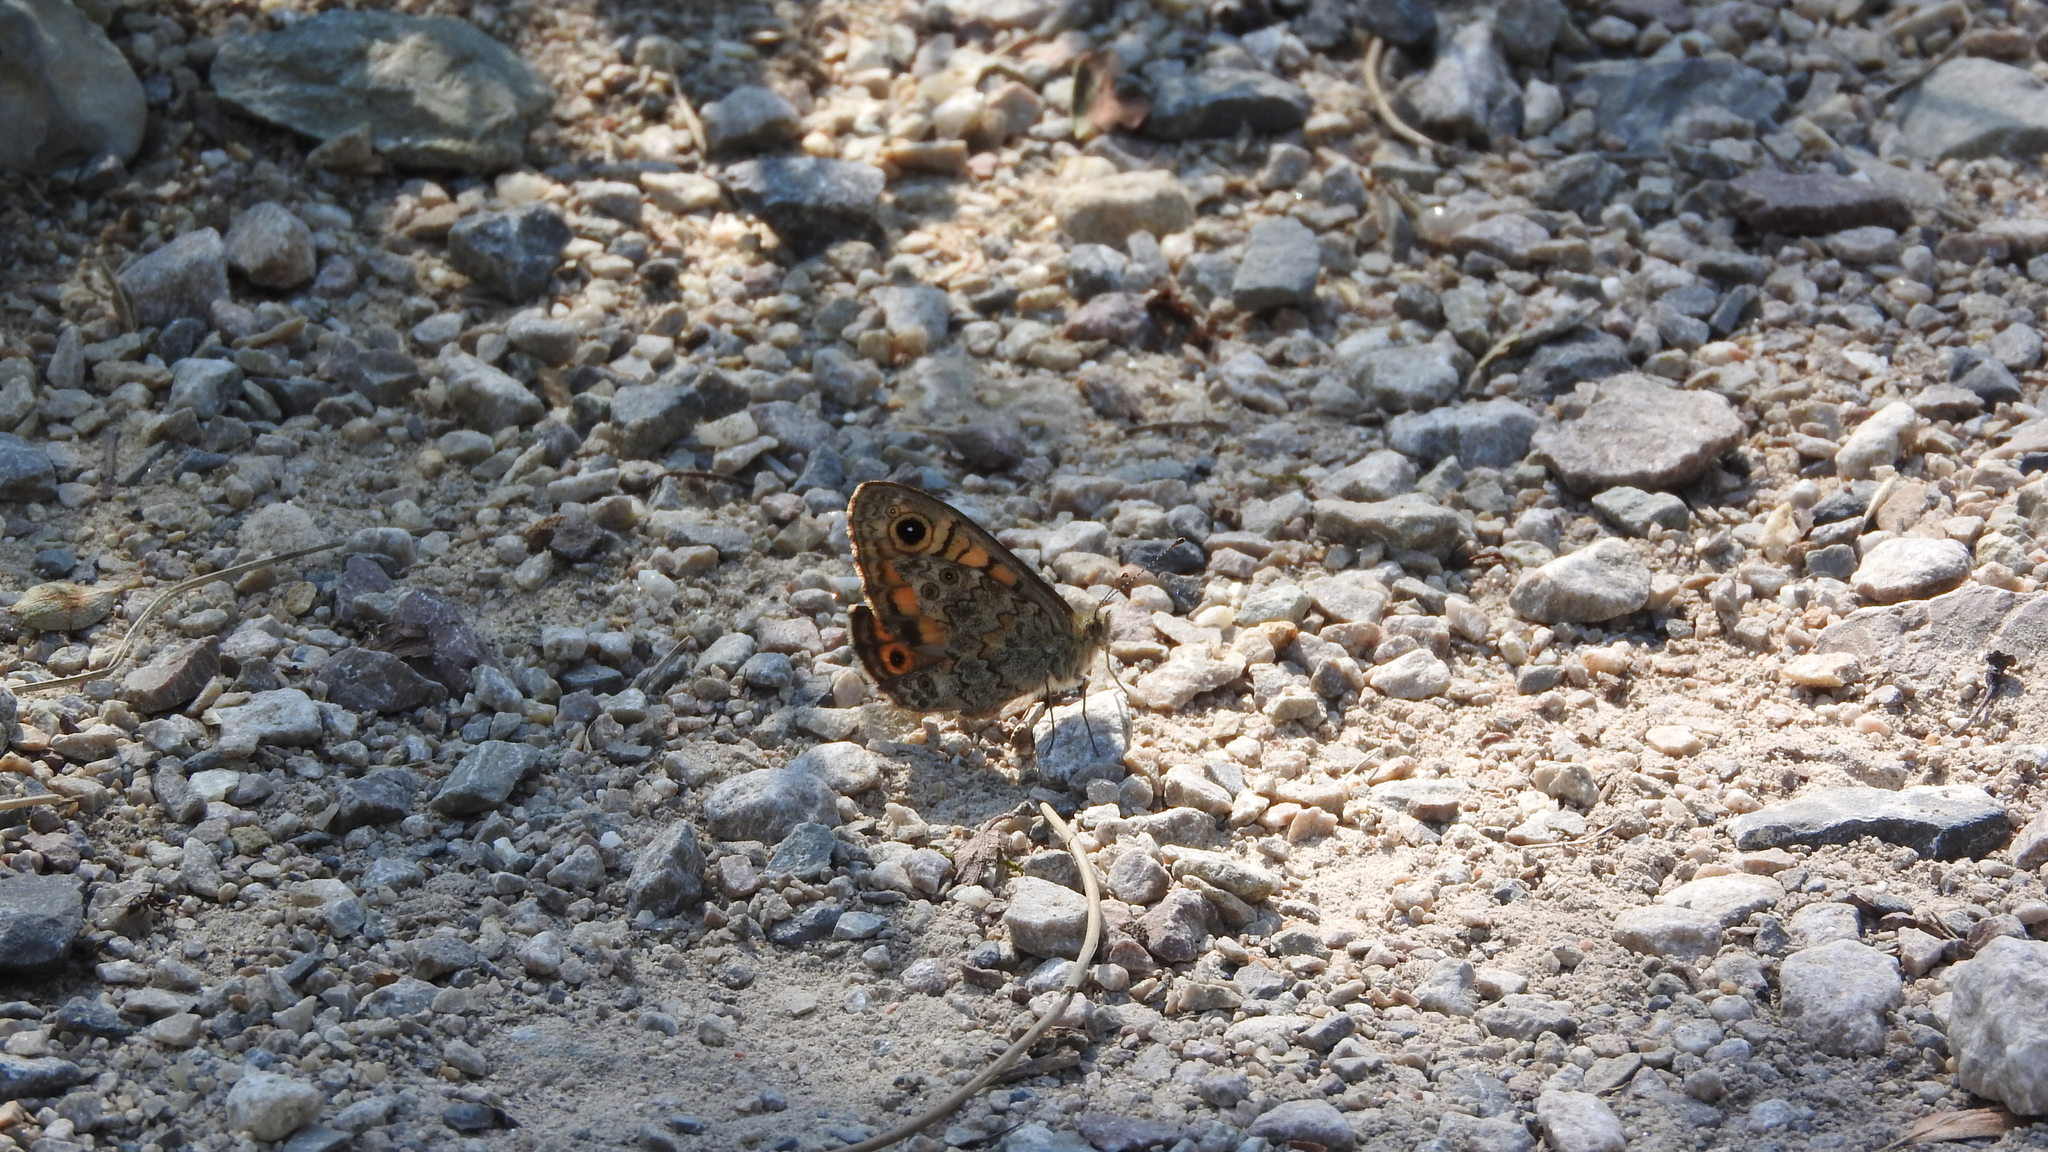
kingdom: Animalia
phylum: Arthropoda
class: Insecta
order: Lepidoptera
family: Nymphalidae
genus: Pararge
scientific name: Pararge Lasiommata megera
